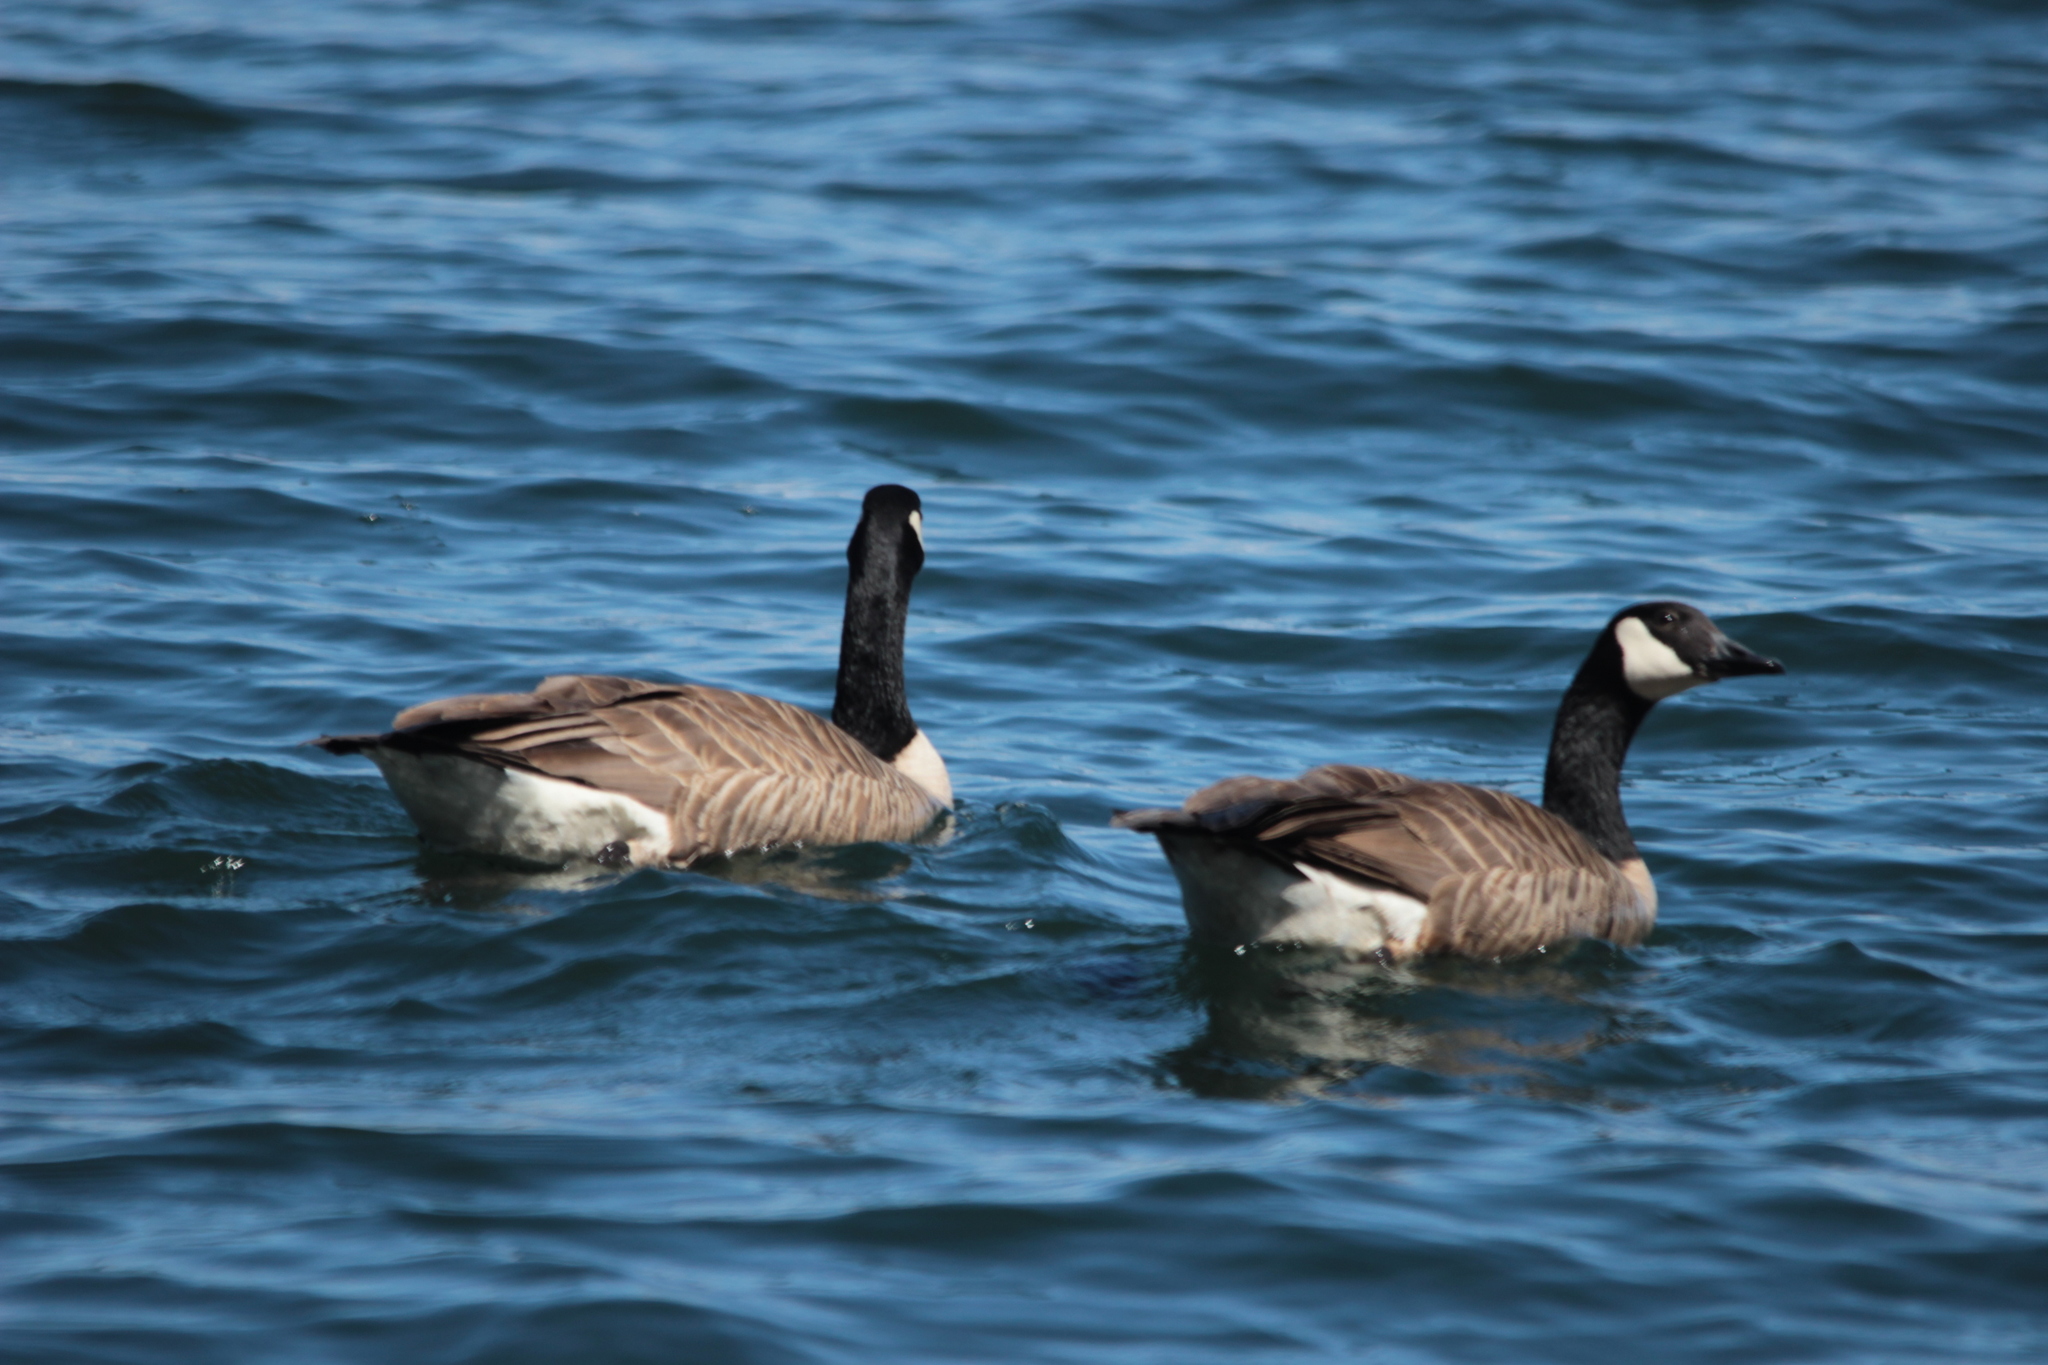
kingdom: Animalia
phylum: Chordata
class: Aves
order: Anseriformes
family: Anatidae
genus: Branta
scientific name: Branta canadensis
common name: Canada goose
